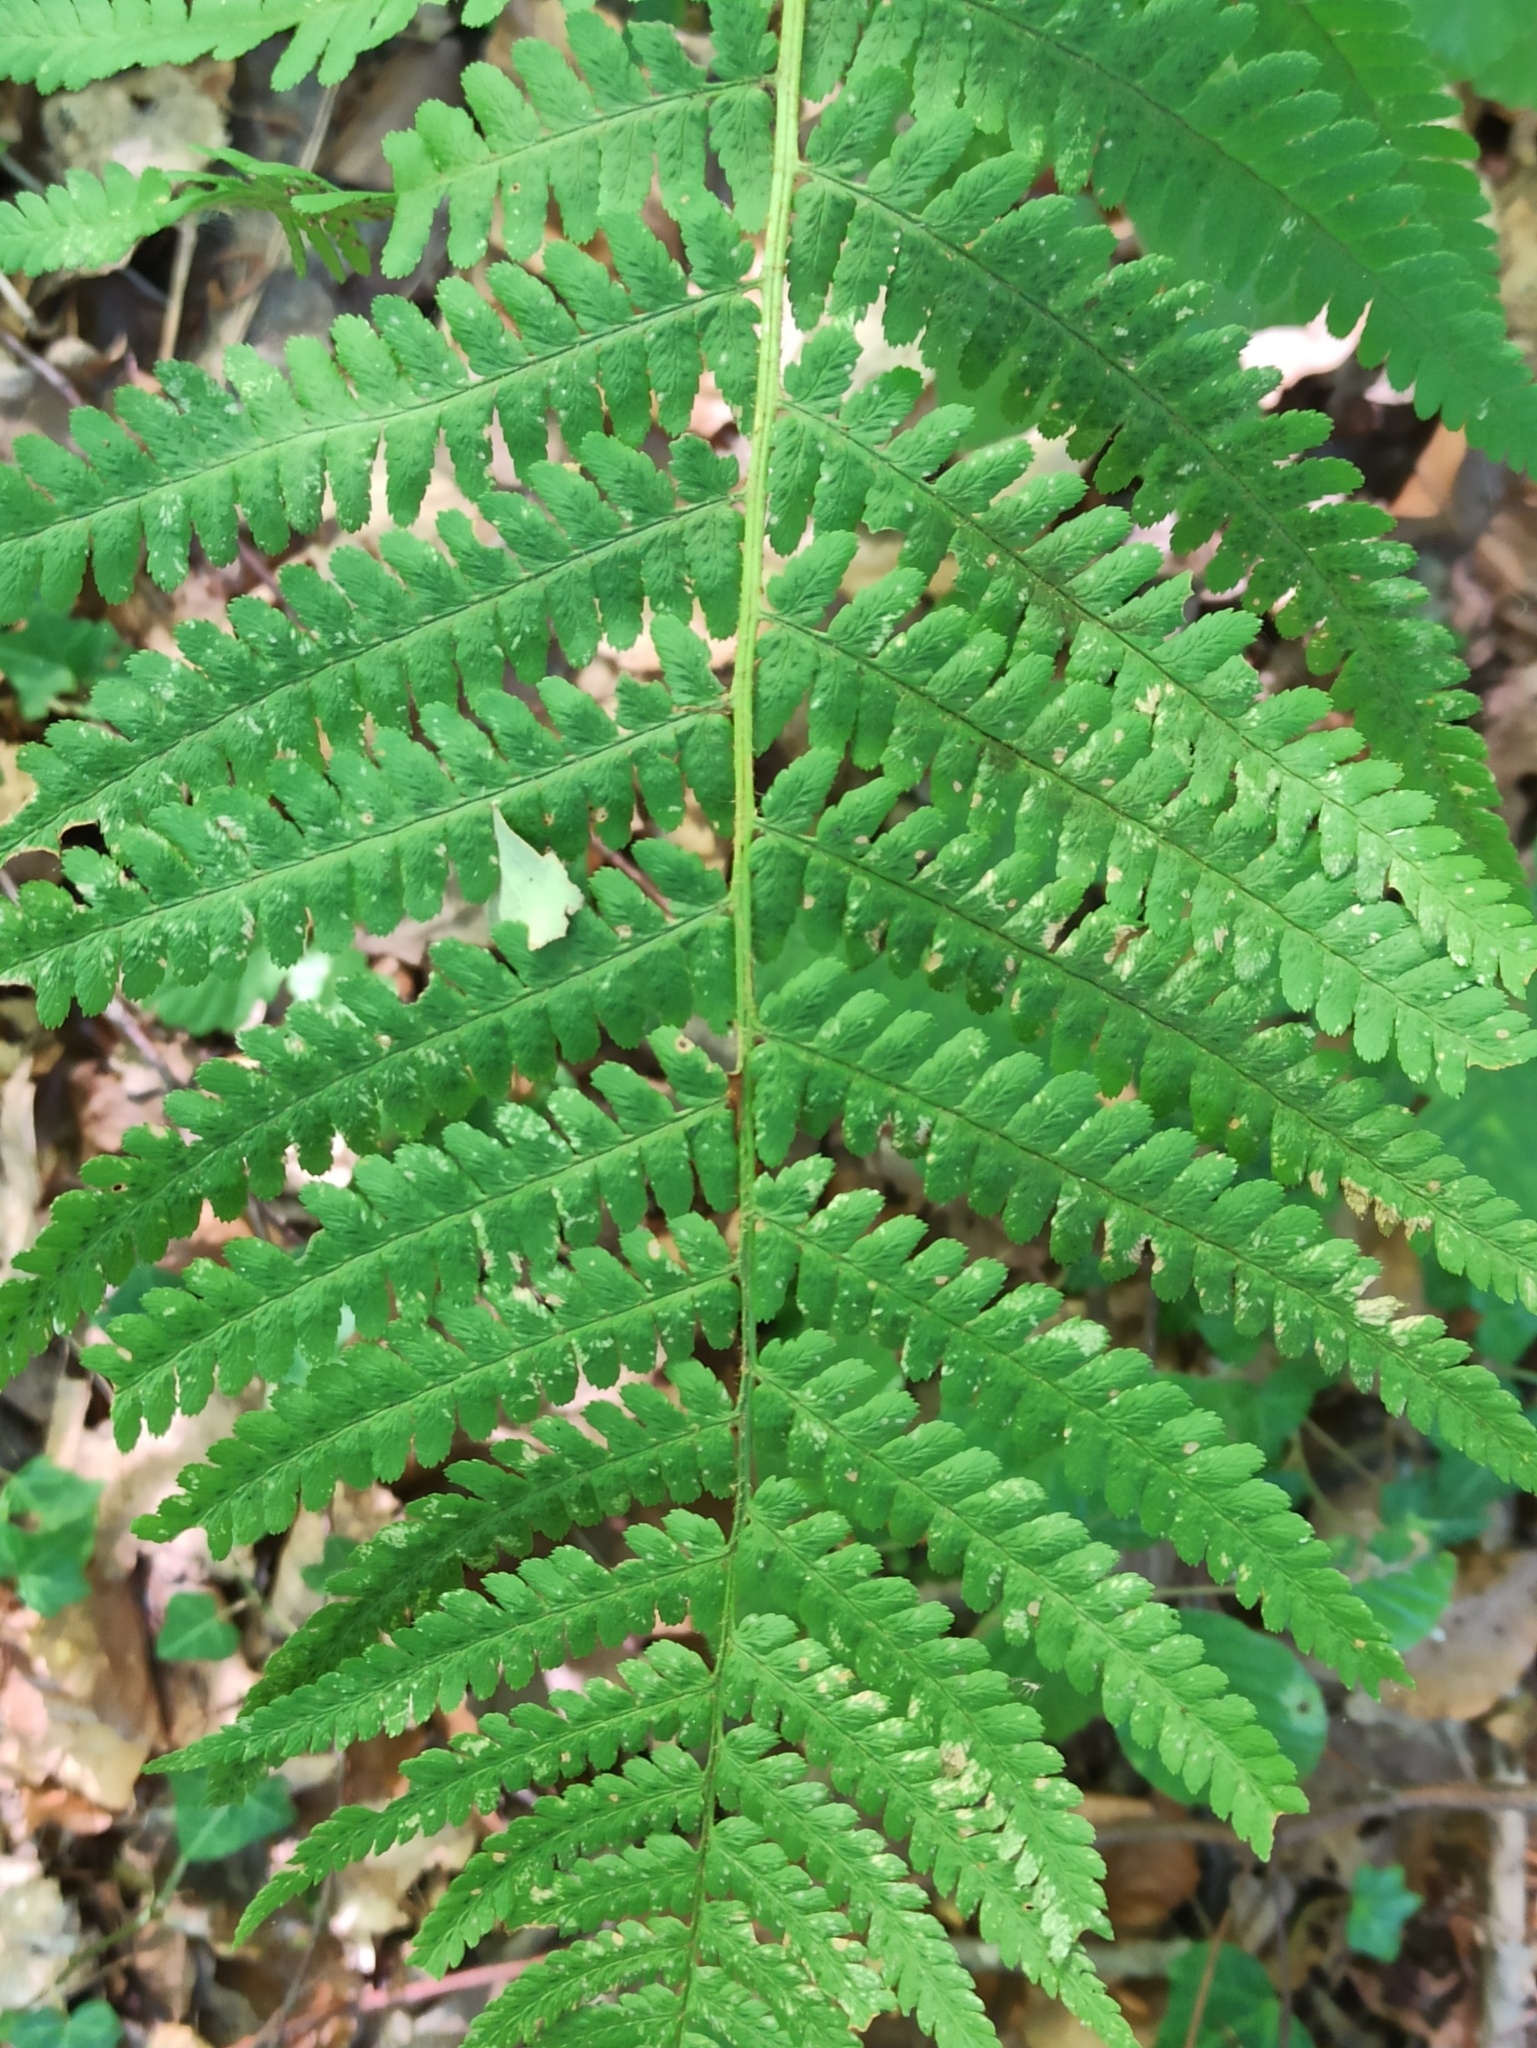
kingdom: Plantae
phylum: Tracheophyta
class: Polypodiopsida
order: Polypodiales
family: Dryopteridaceae
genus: Dryopteris
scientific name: Dryopteris filix-mas
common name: Male fern
